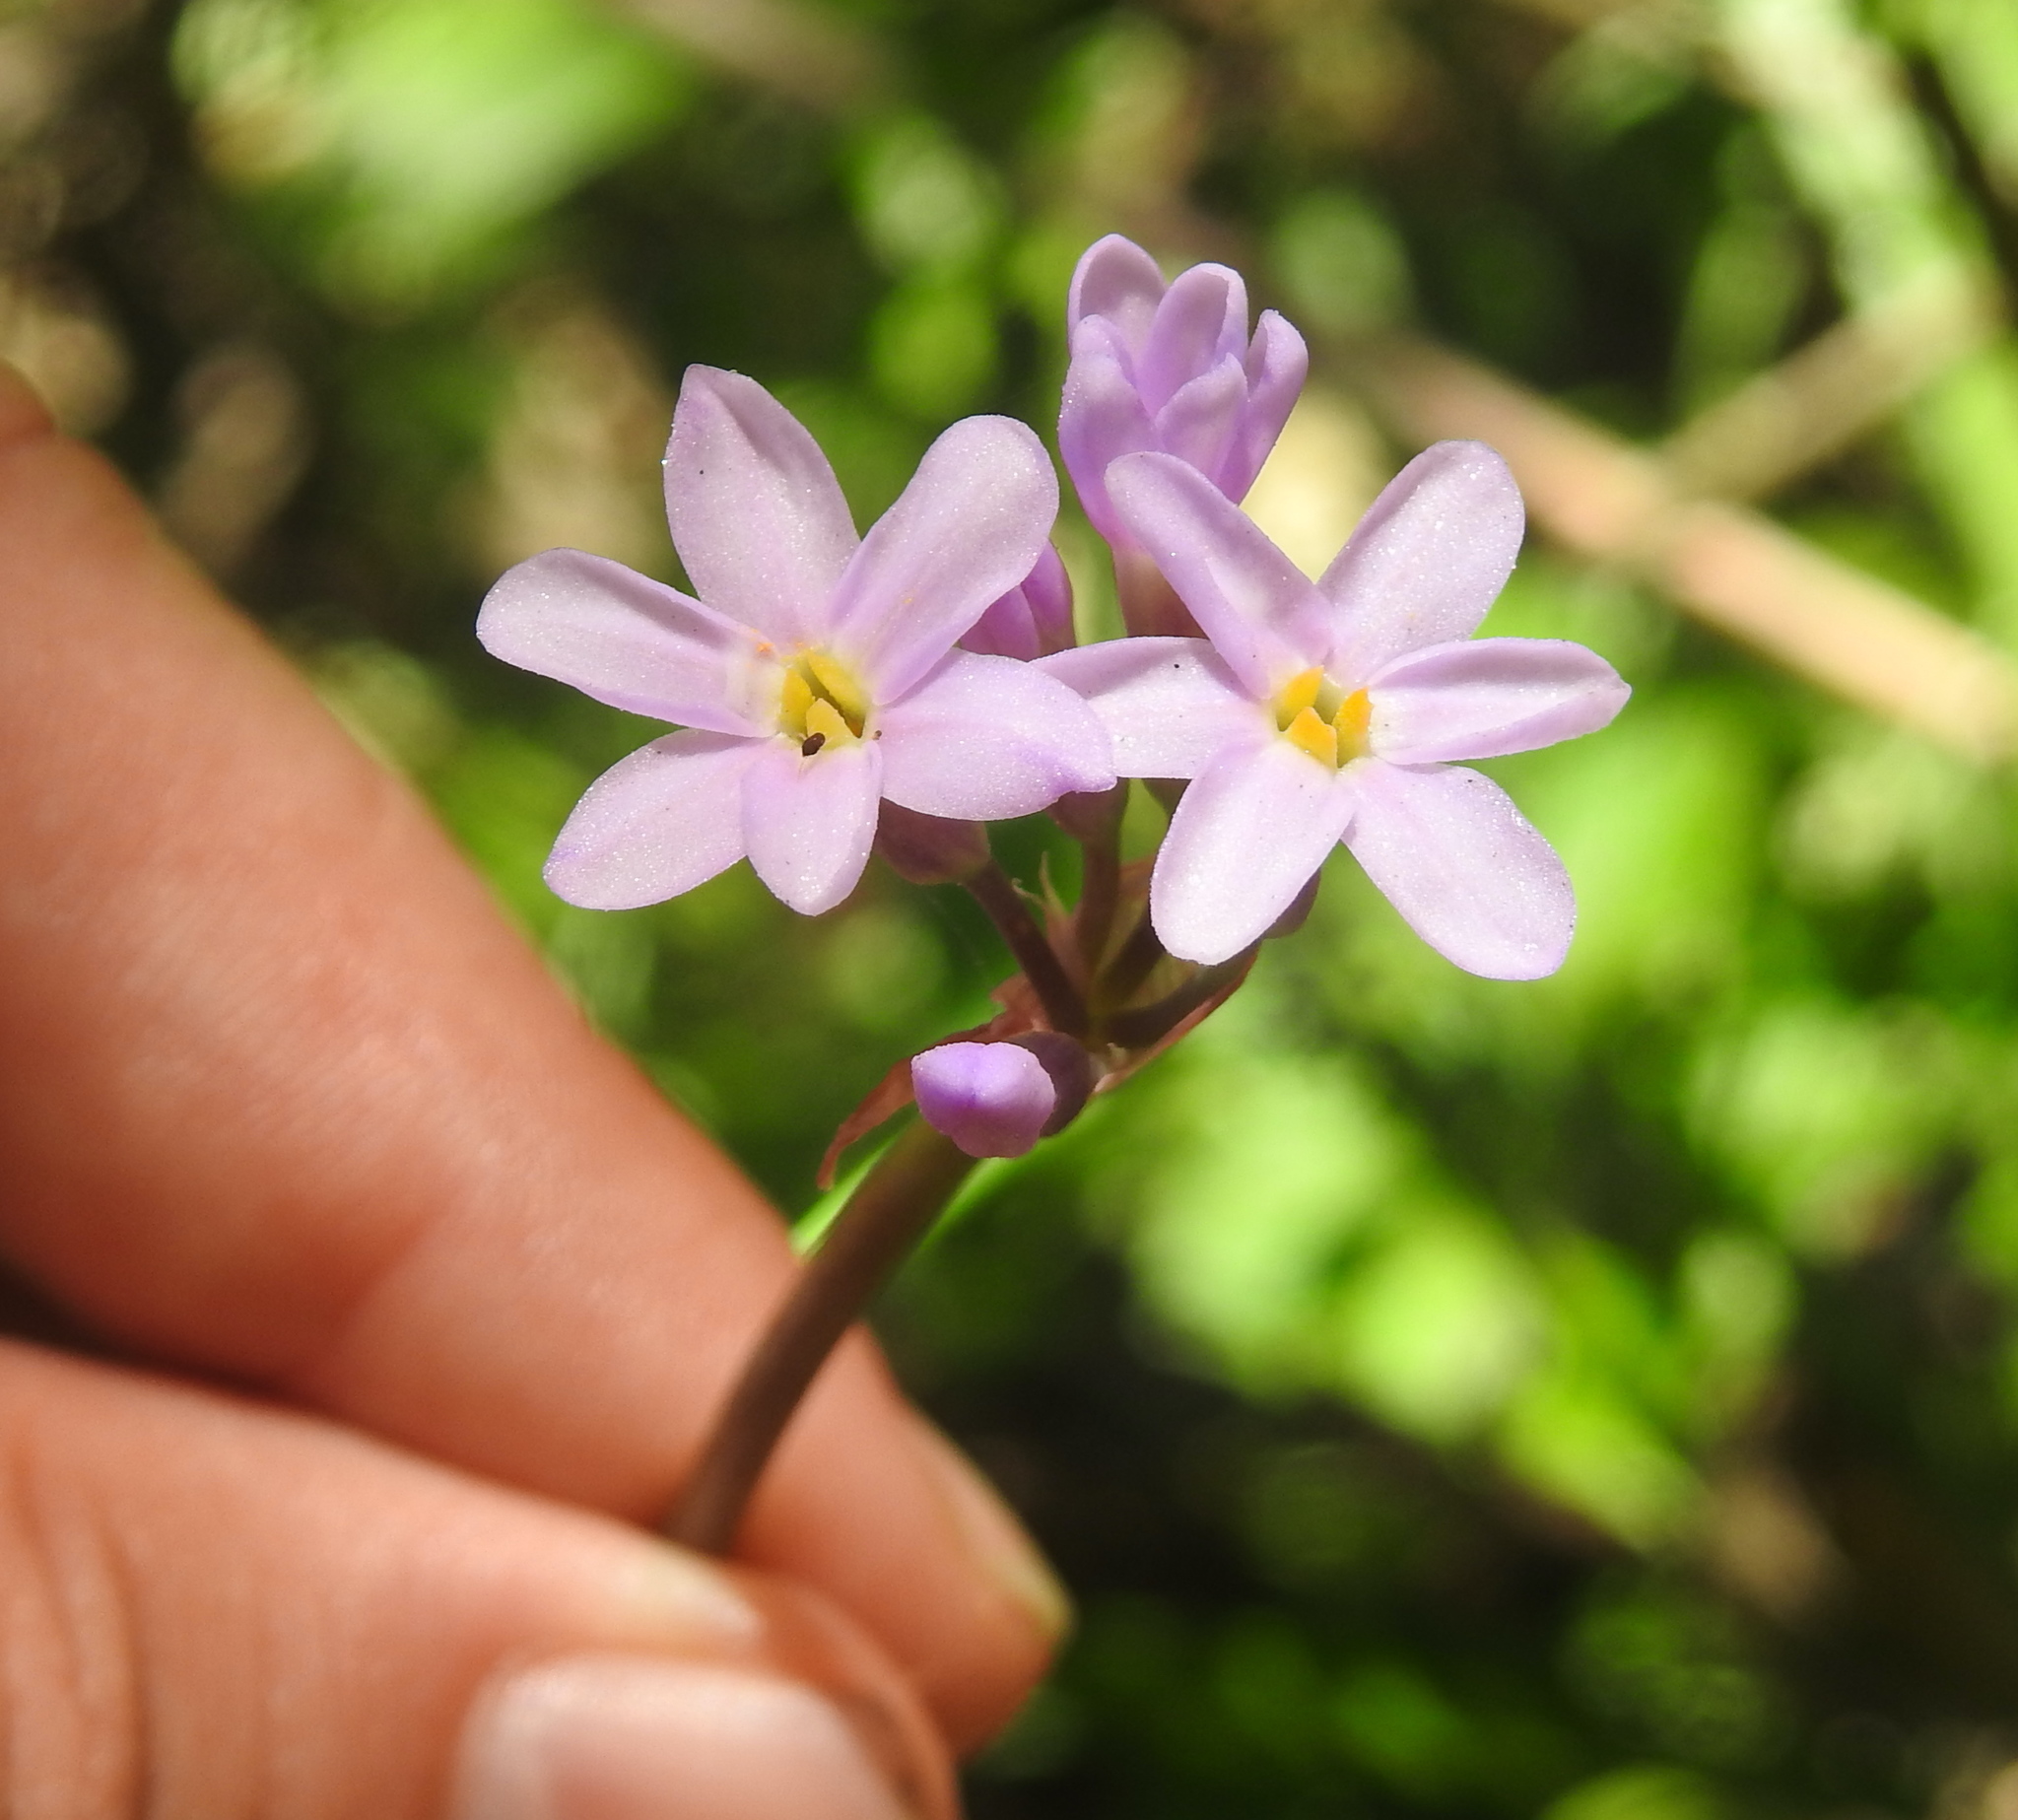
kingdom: Plantae
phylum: Tracheophyta
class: Liliopsida
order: Asparagales
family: Amaryllidaceae
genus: Tulbaghia
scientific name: Tulbaghia maritima
